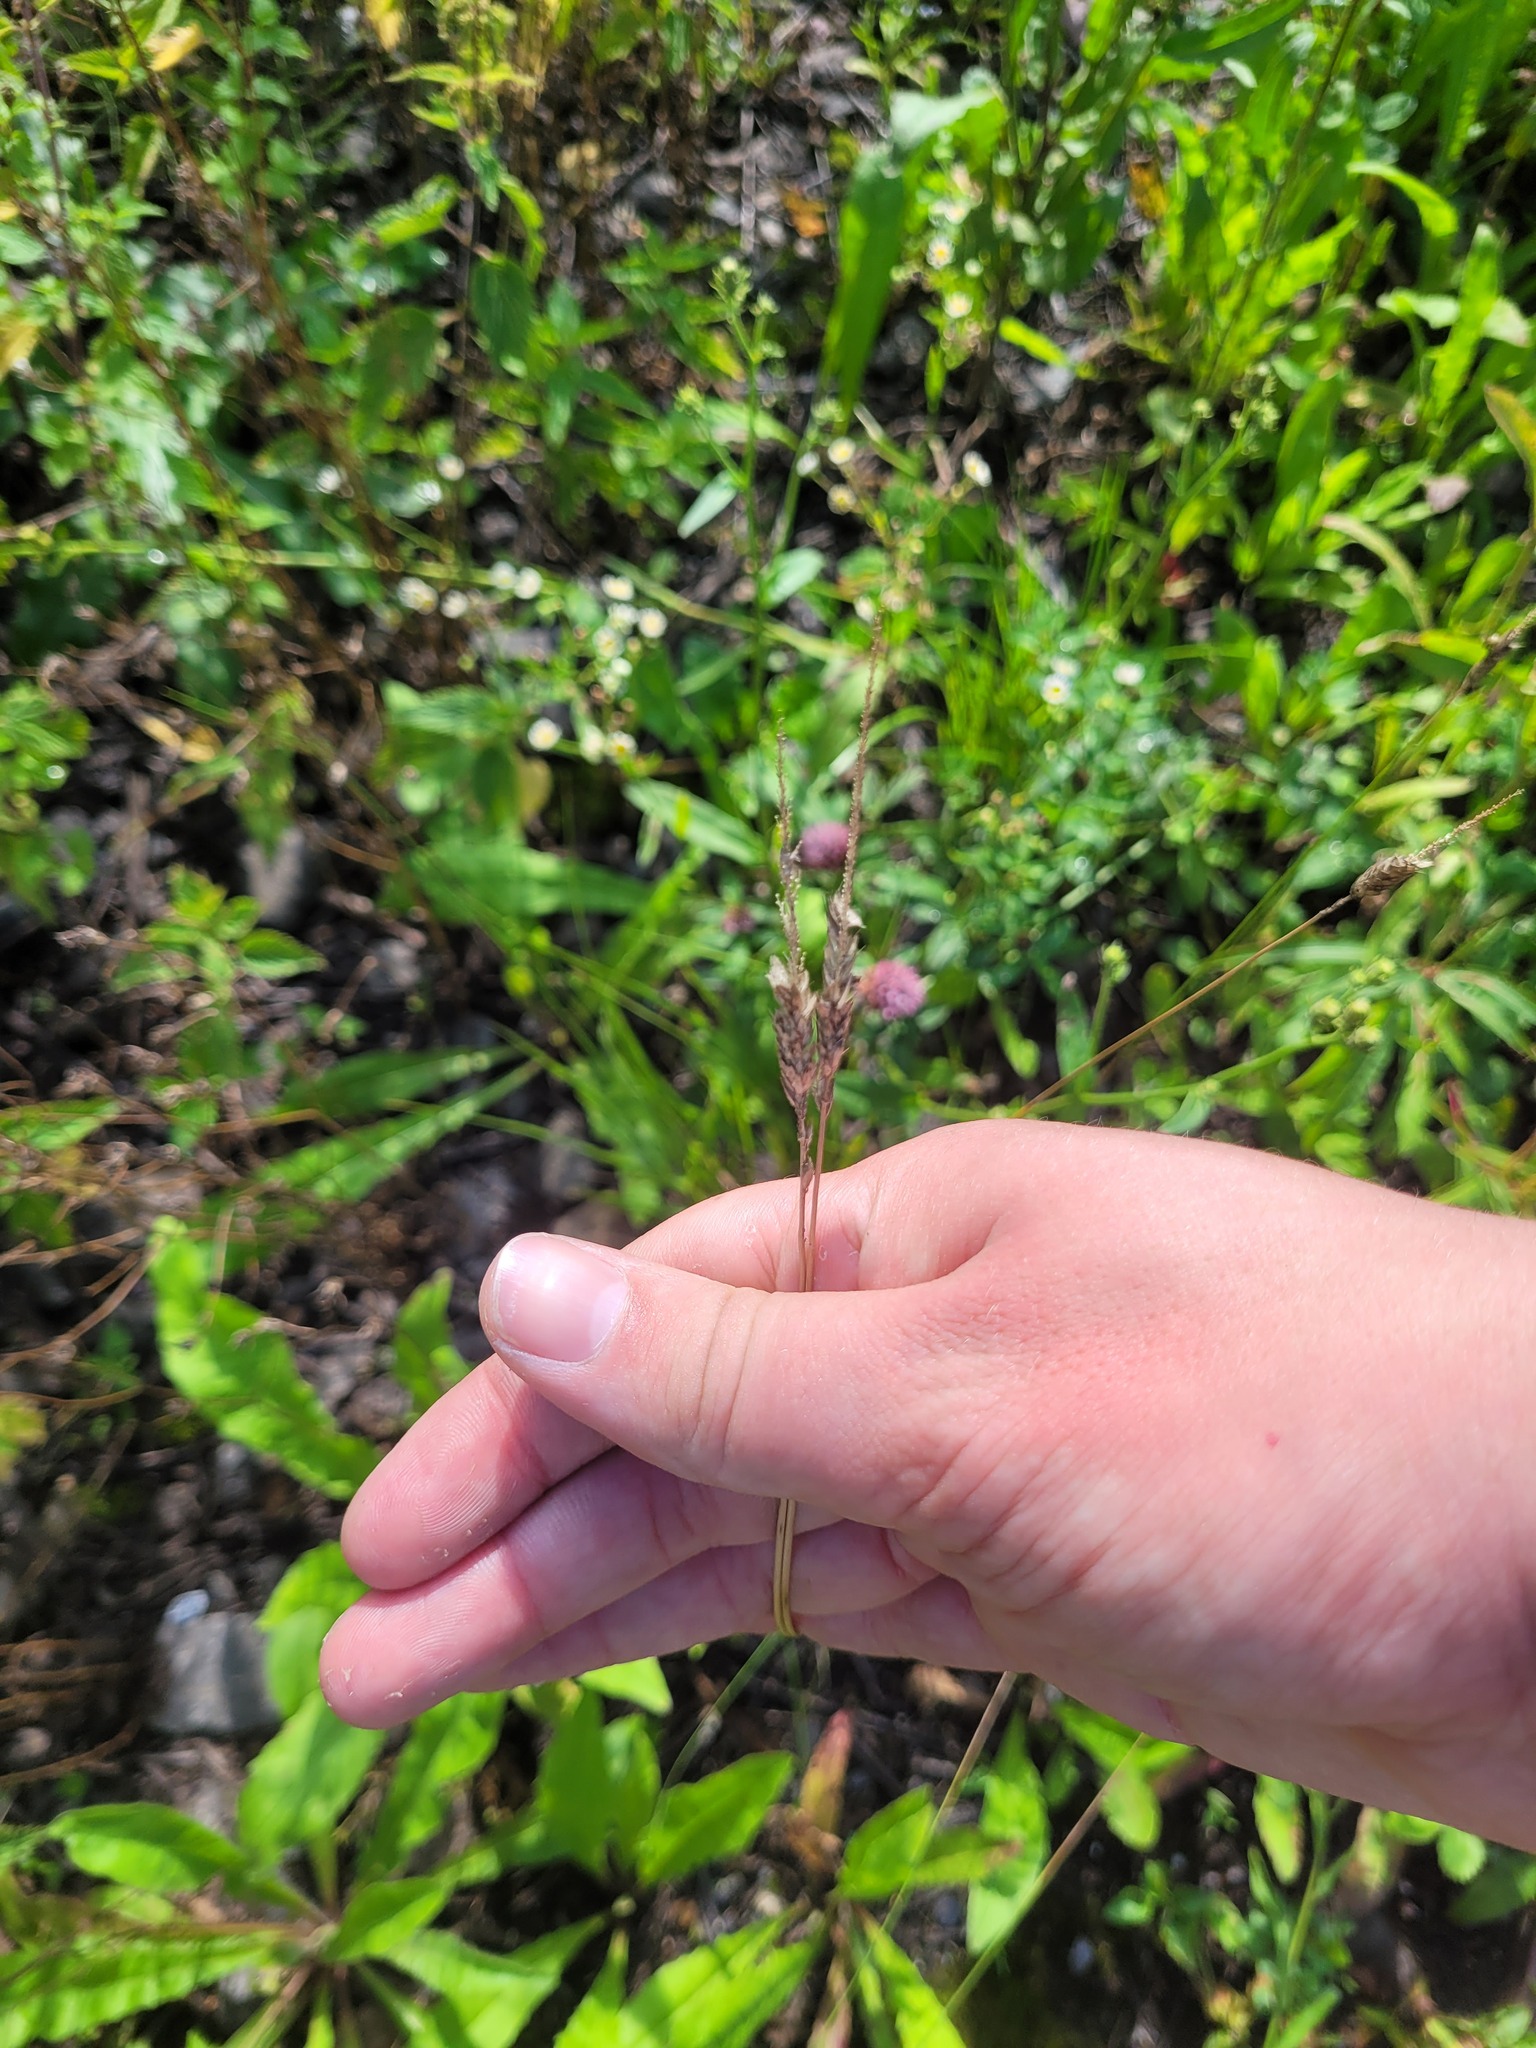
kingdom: Plantae
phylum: Tracheophyta
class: Liliopsida
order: Poales
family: Poaceae
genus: Alopecurus
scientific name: Alopecurus pratensis
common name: Meadow foxtail
